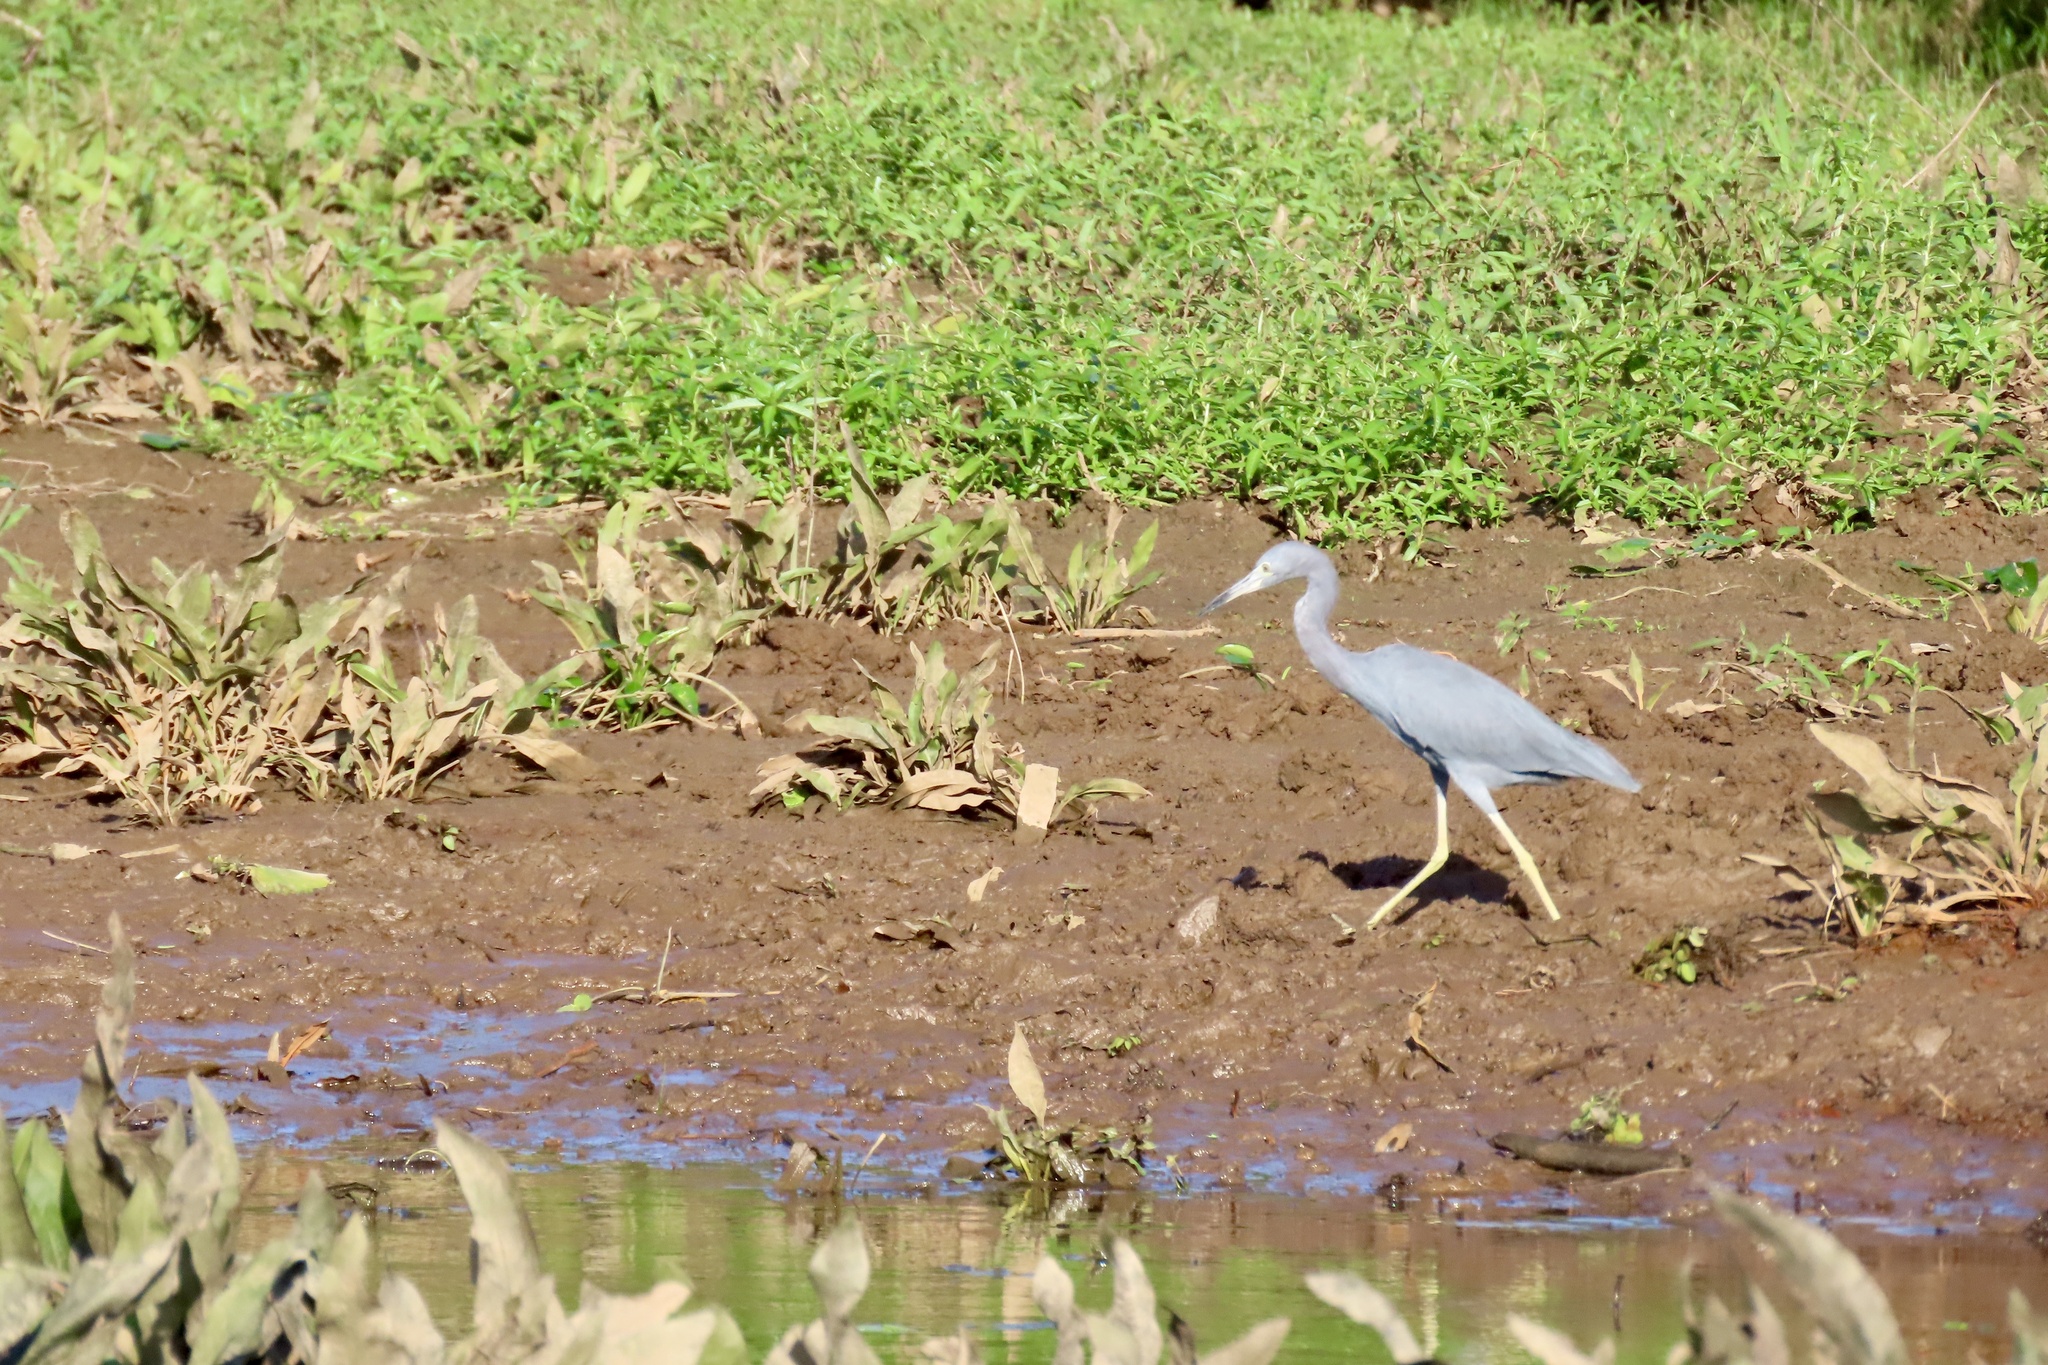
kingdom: Animalia
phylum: Chordata
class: Aves
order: Pelecaniformes
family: Ardeidae
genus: Egretta
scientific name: Egretta caerulea
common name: Little blue heron
